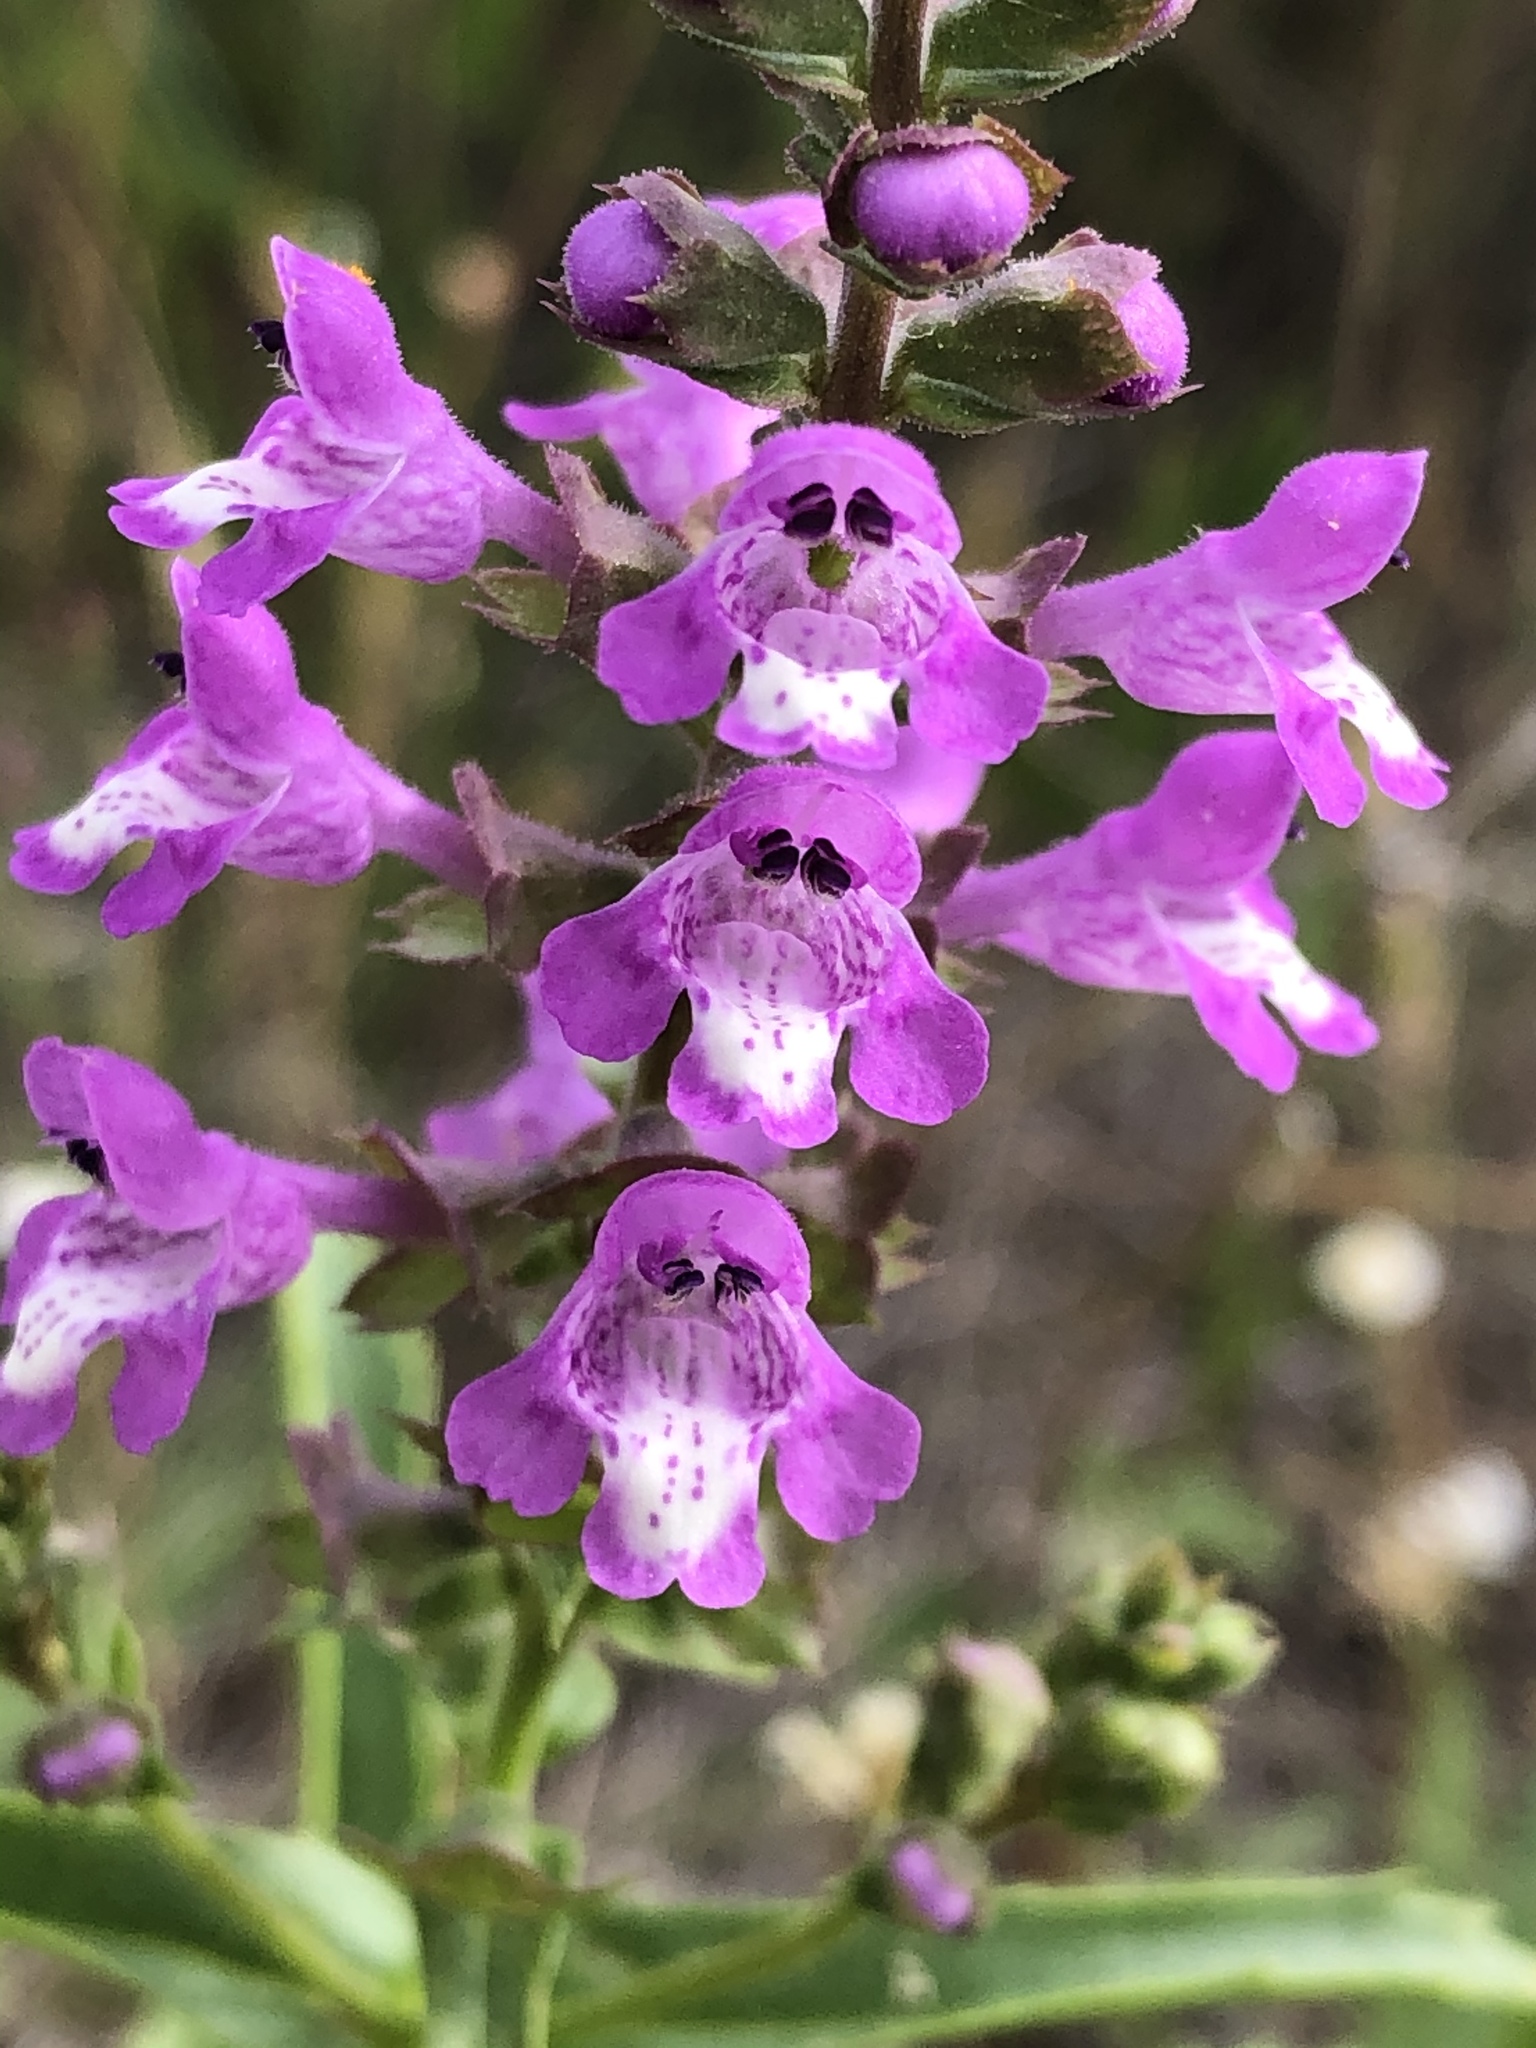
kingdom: Plantae
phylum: Tracheophyta
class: Magnoliopsida
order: Lamiales
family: Lamiaceae
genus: Warnockia
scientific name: Warnockia scutellarioides
